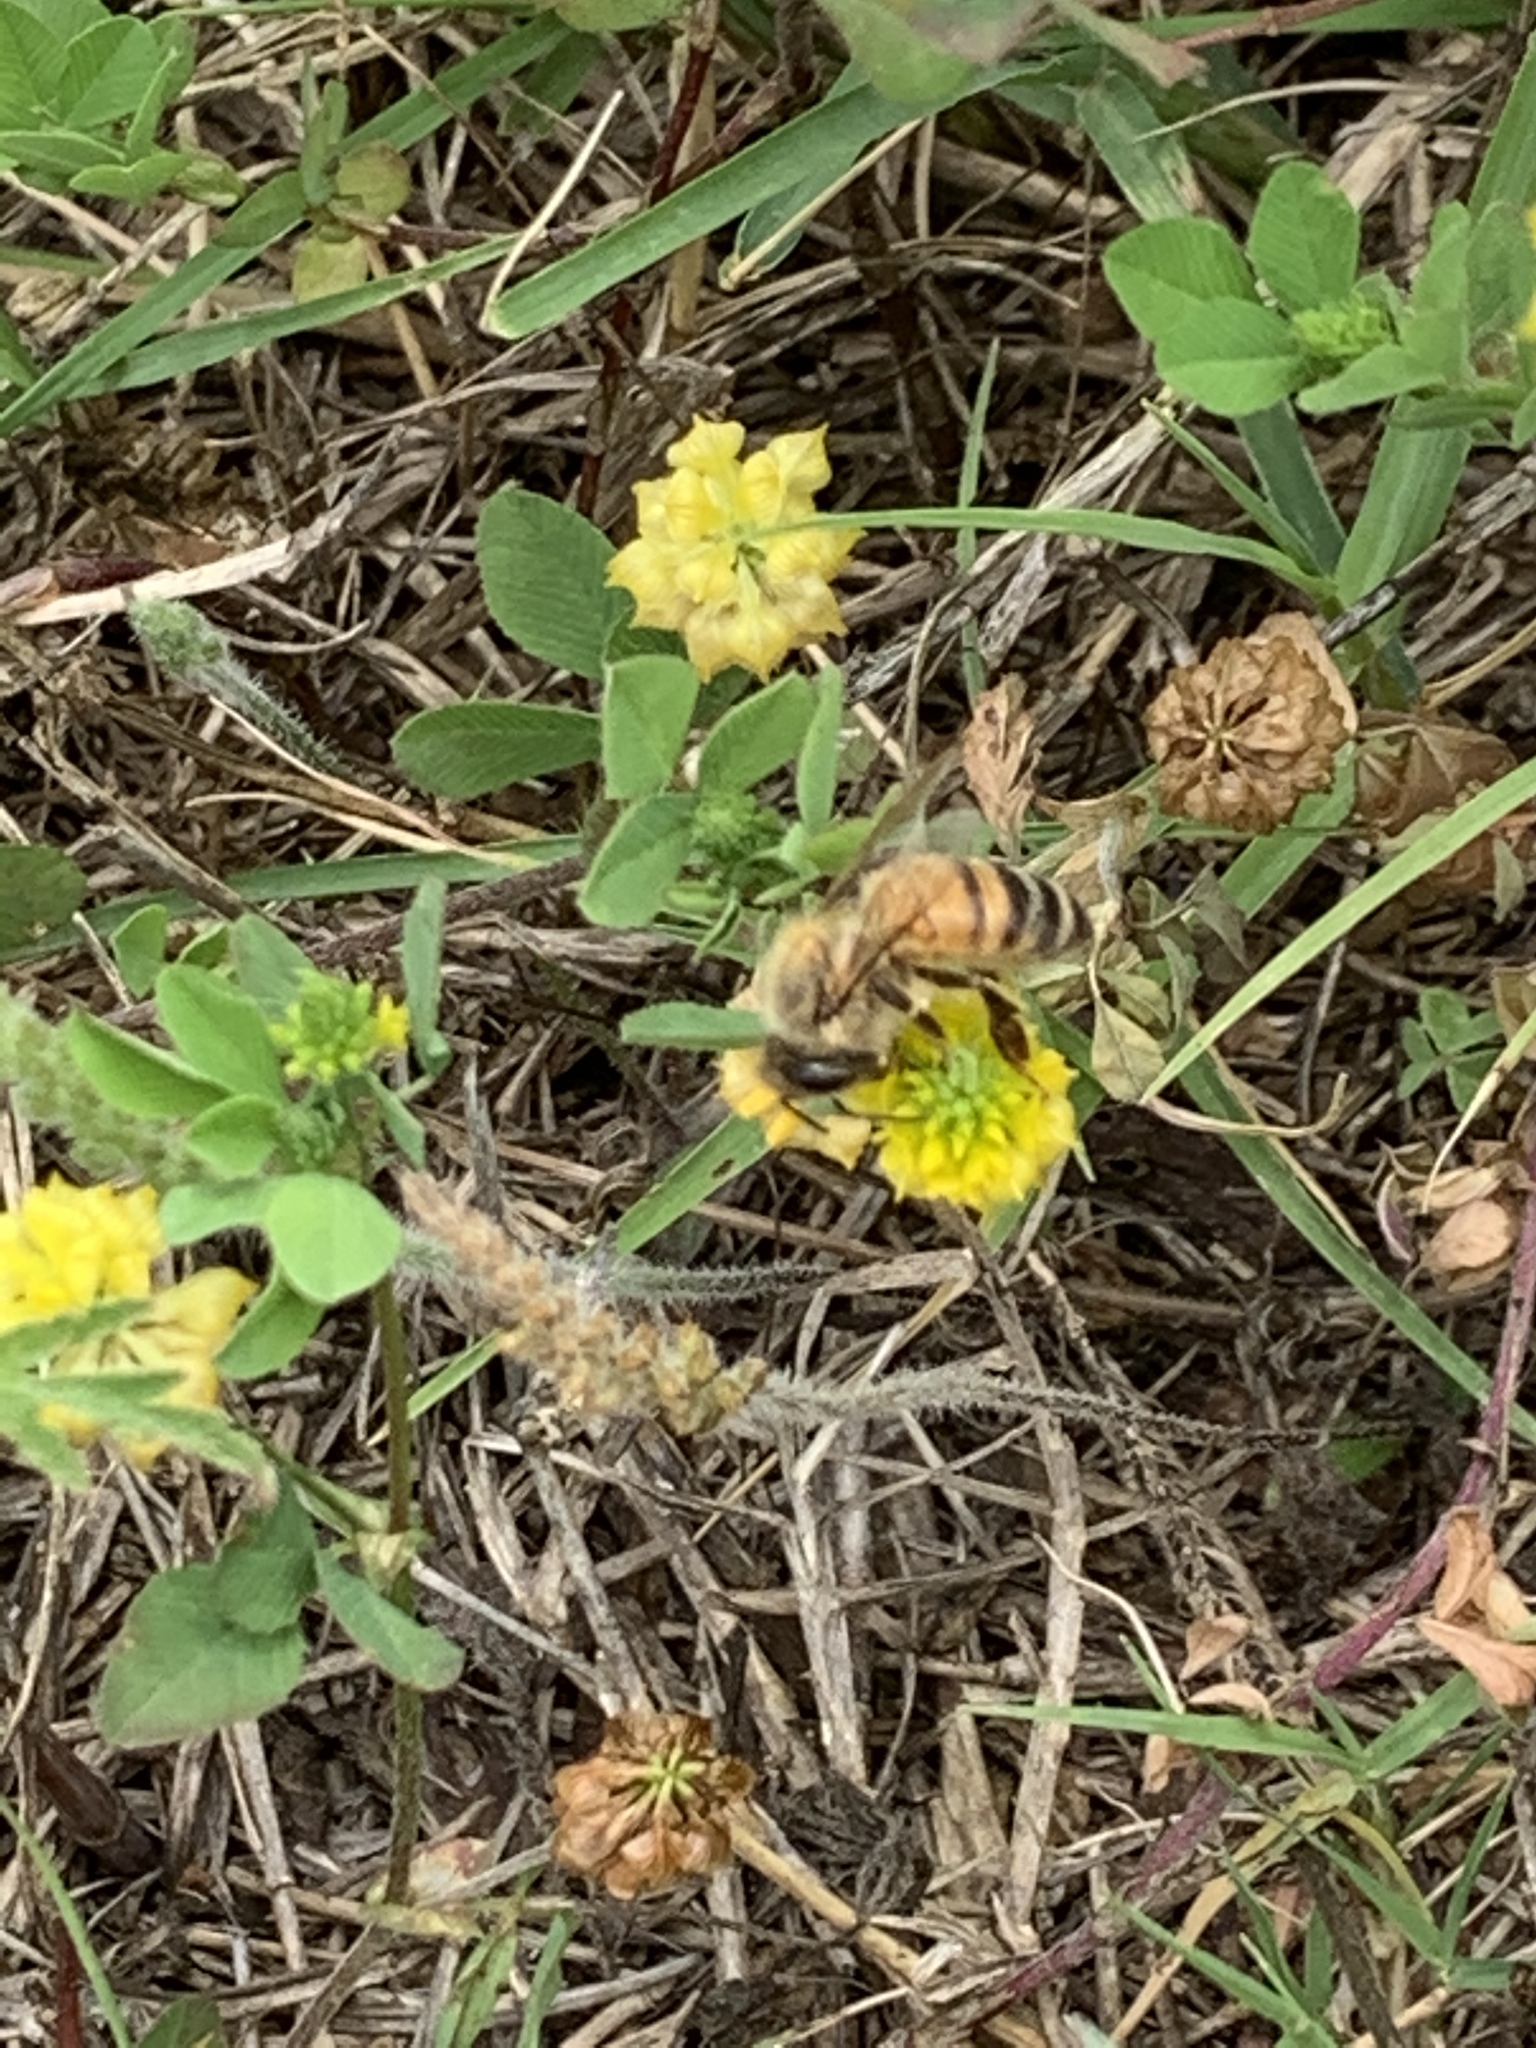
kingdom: Animalia
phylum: Arthropoda
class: Insecta
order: Hymenoptera
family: Apidae
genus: Apis
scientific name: Apis mellifera
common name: Honey bee
